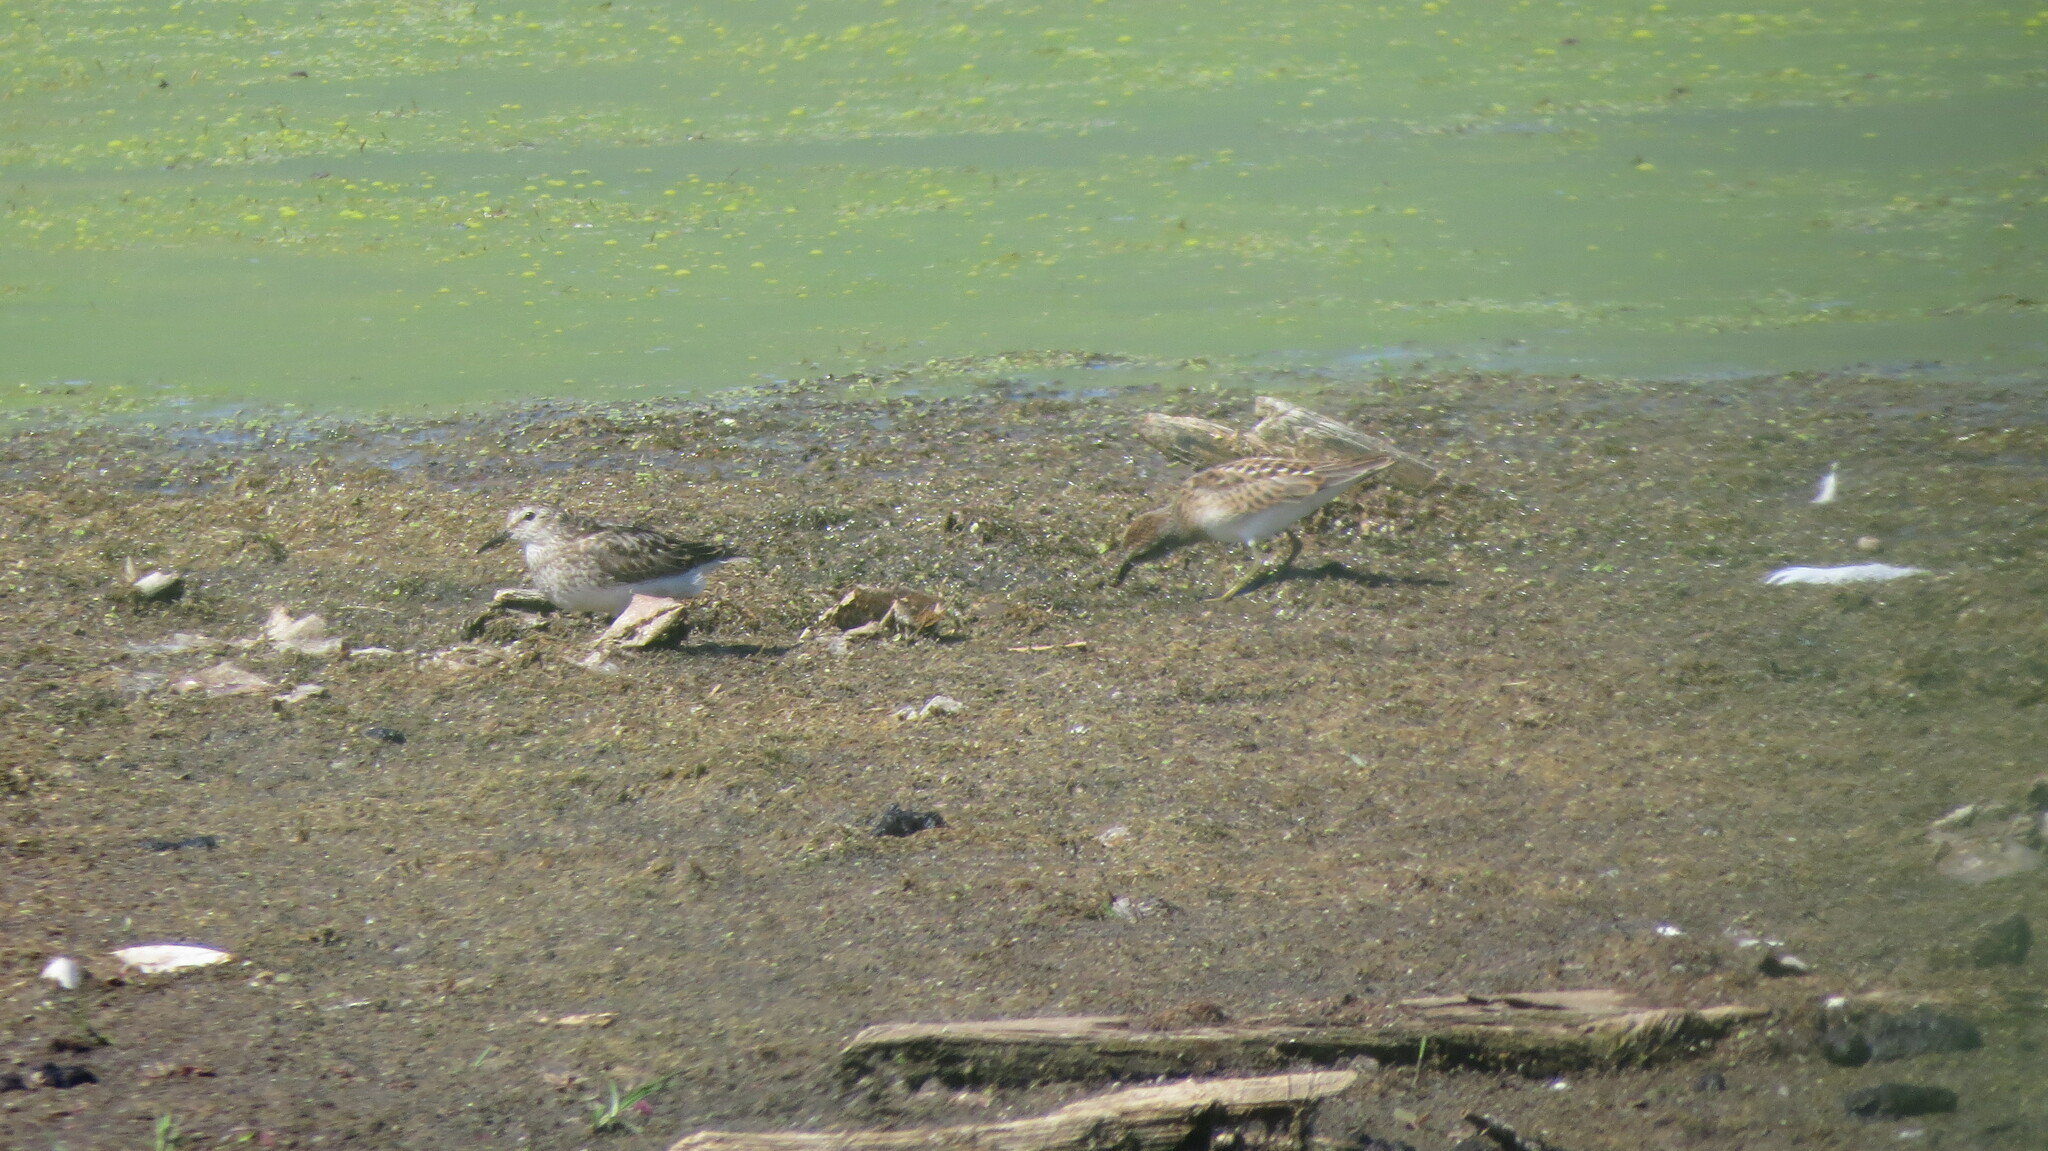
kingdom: Animalia
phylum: Chordata
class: Aves
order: Charadriiformes
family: Scolopacidae
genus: Calidris
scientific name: Calidris minutilla
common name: Least sandpiper
